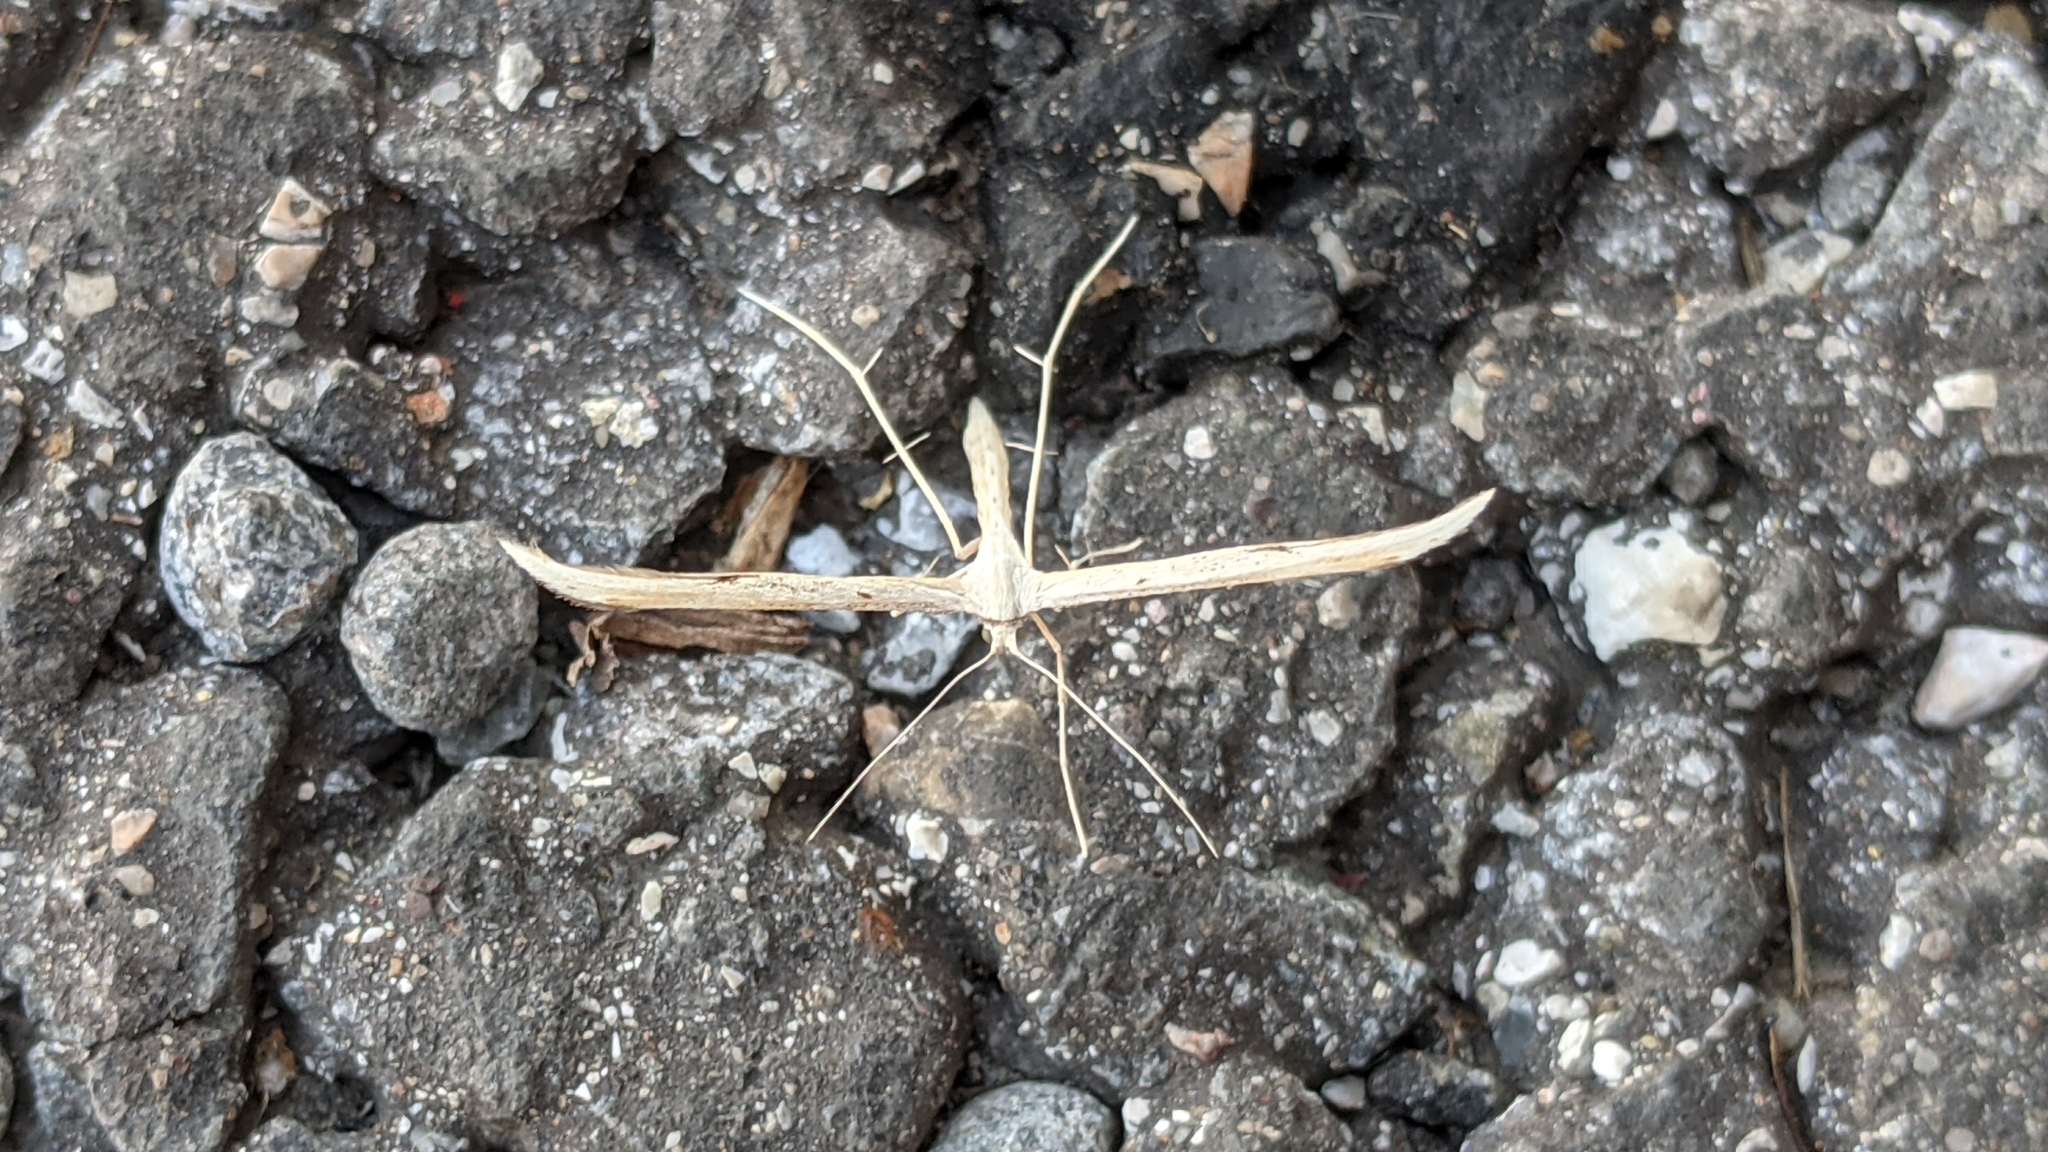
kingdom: Animalia
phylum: Arthropoda
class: Insecta
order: Lepidoptera
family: Pterophoridae
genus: Emmelina
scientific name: Emmelina monodactyla
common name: Common plume
